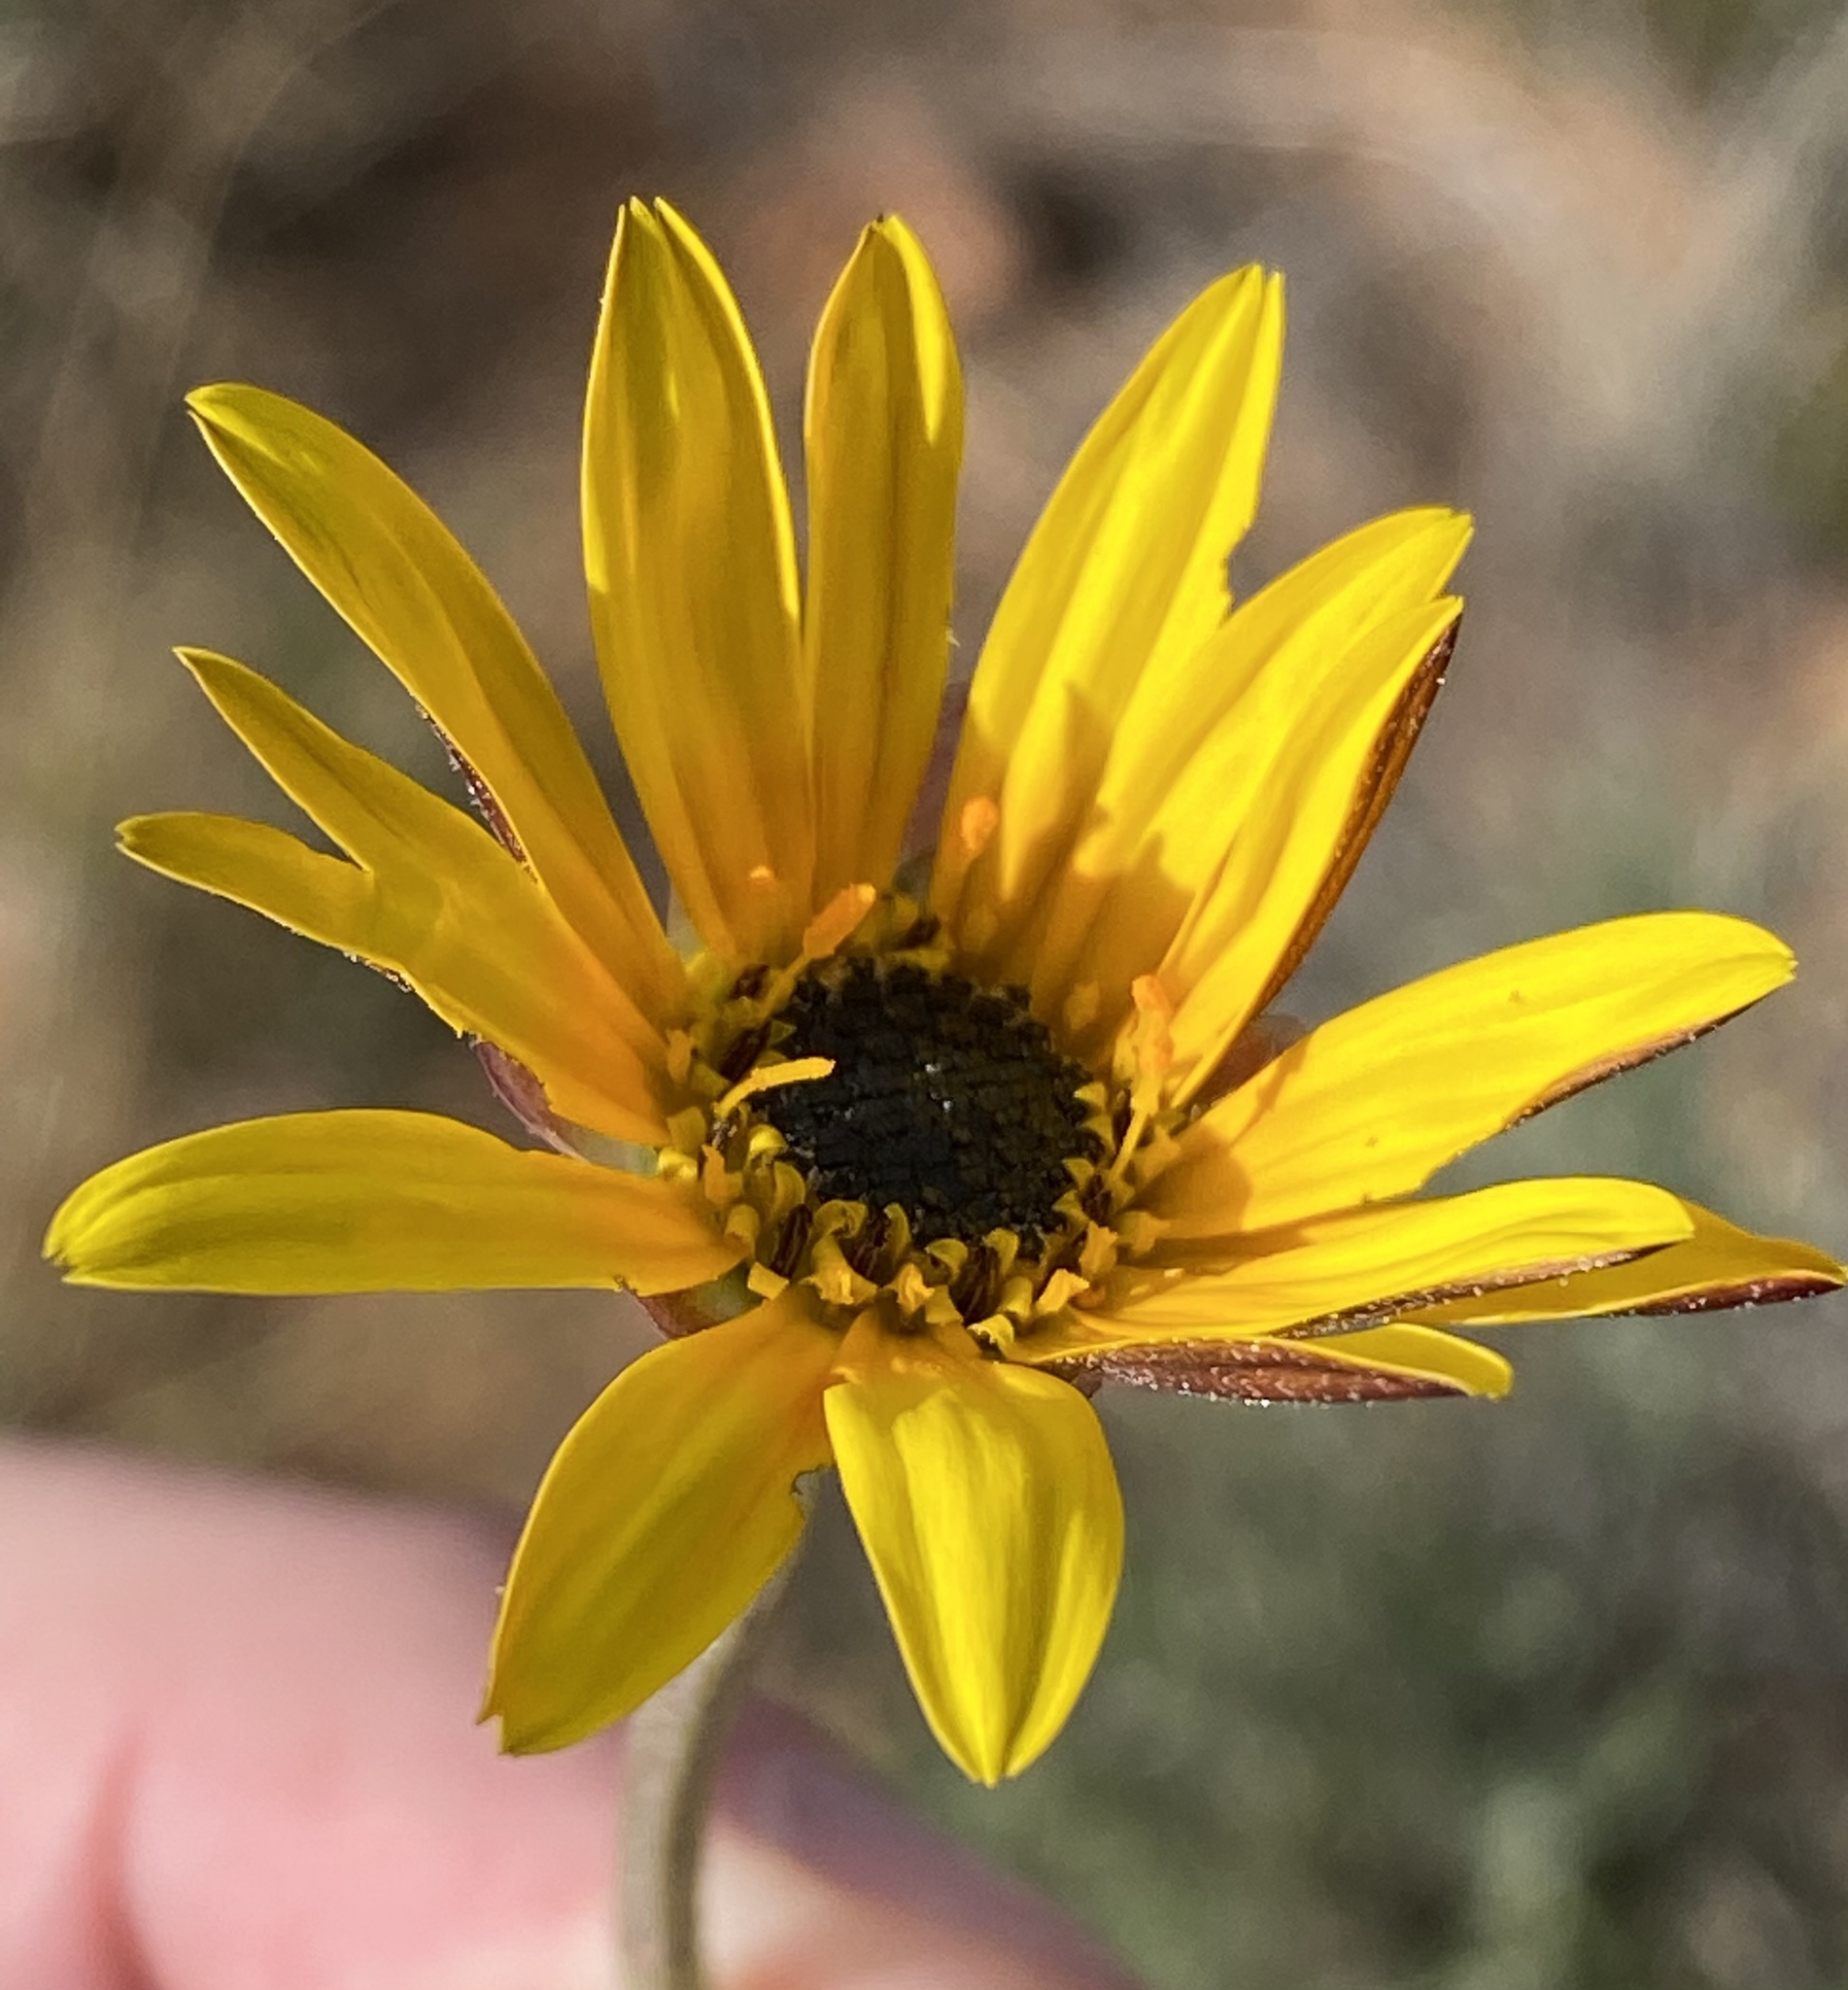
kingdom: Plantae
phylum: Tracheophyta
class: Magnoliopsida
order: Asterales
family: Asteraceae
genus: Arctotis
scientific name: Arctotis lanceolata
